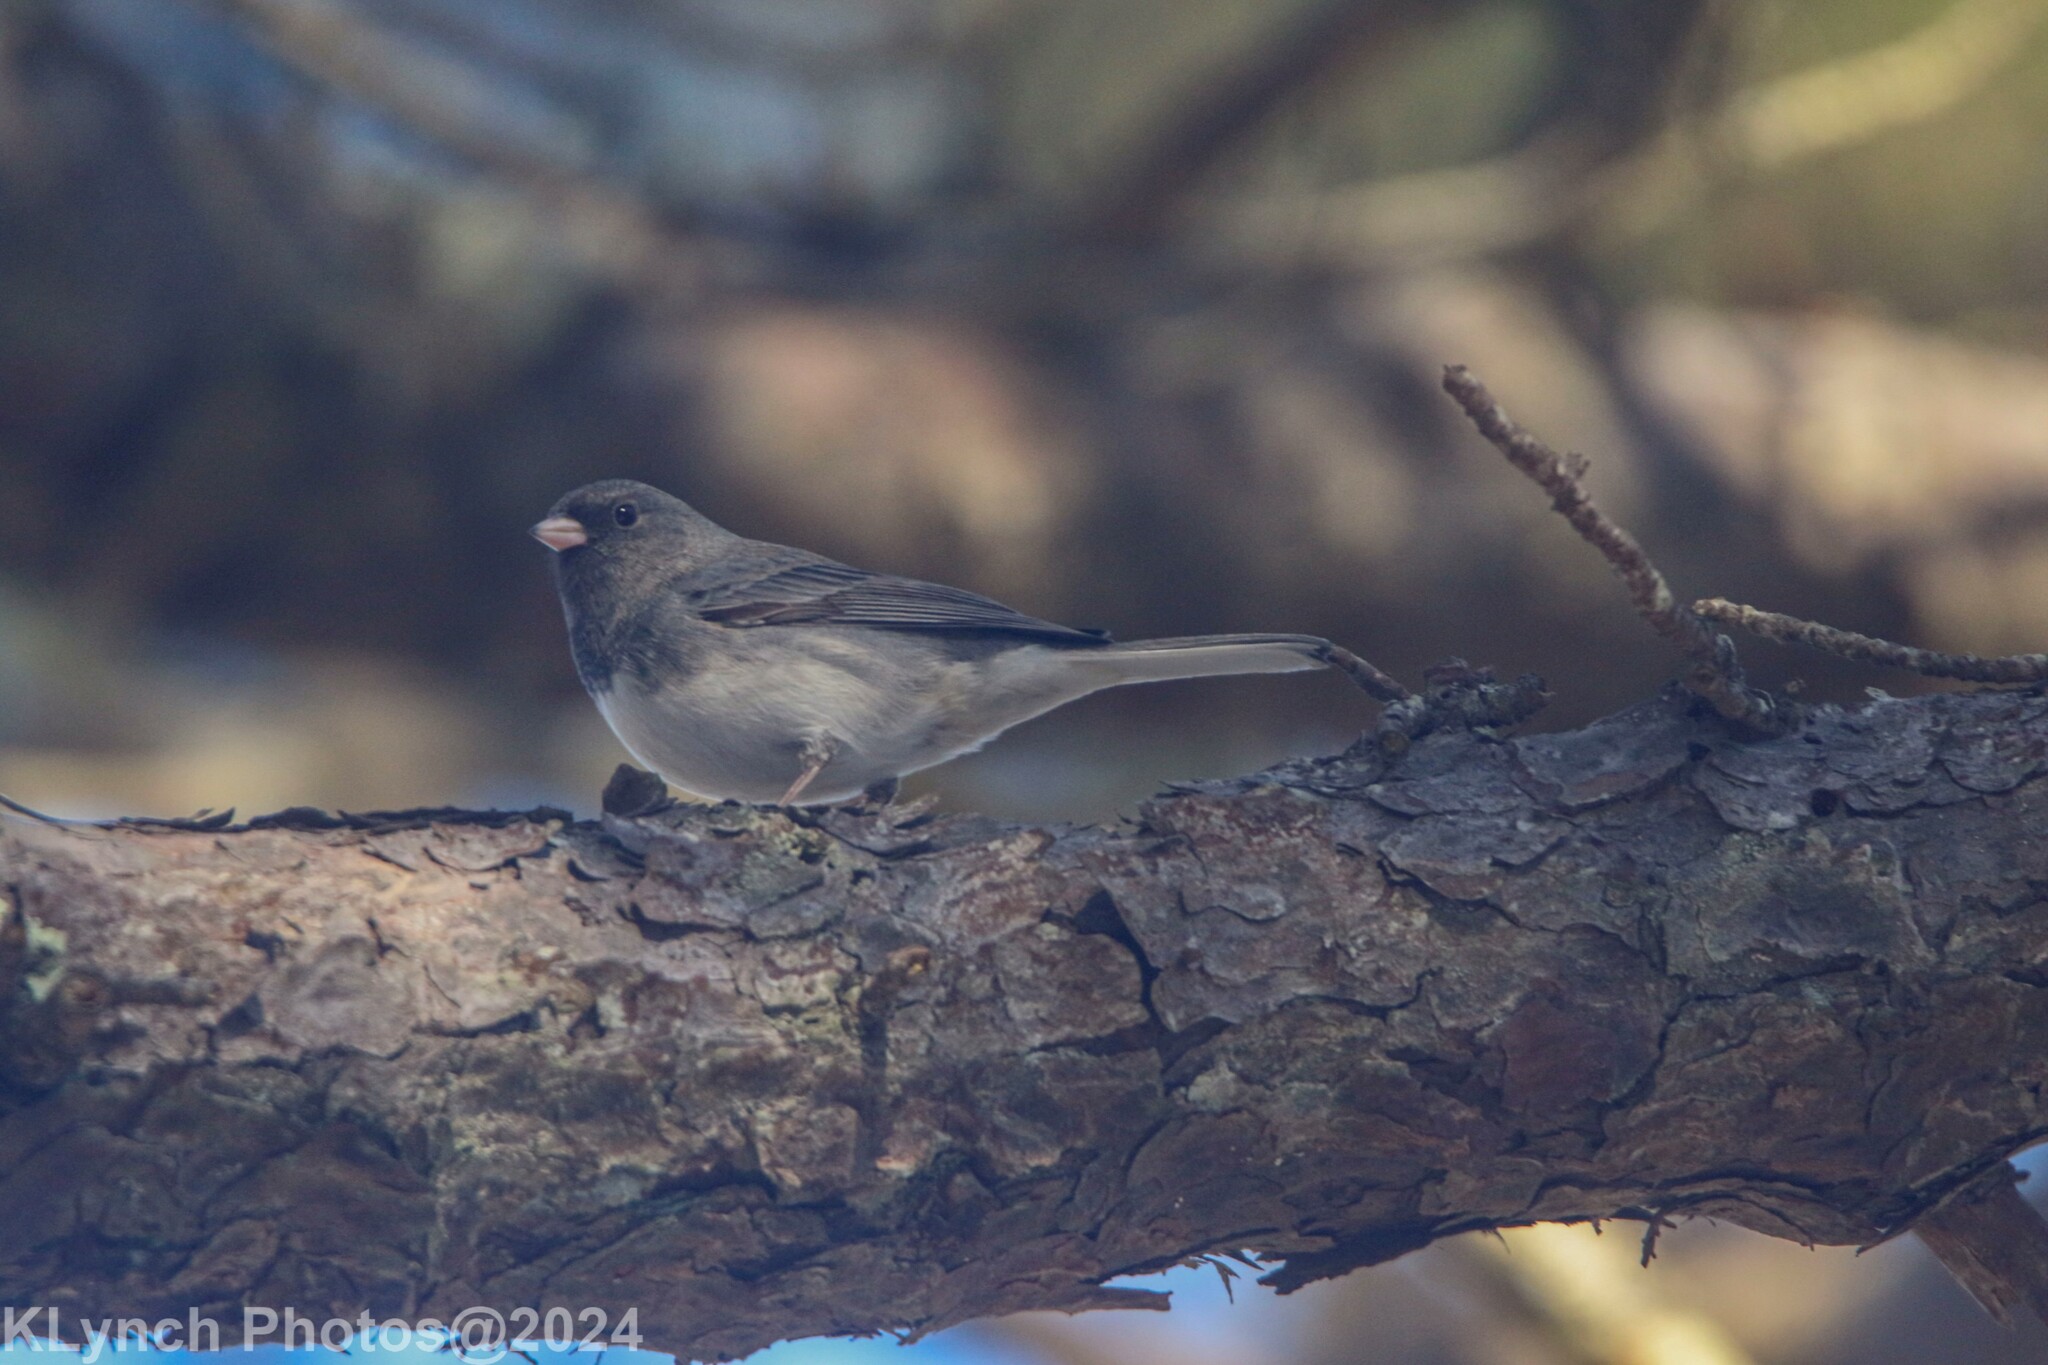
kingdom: Animalia
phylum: Chordata
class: Aves
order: Passeriformes
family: Passerellidae
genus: Junco
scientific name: Junco hyemalis
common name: Dark-eyed junco
